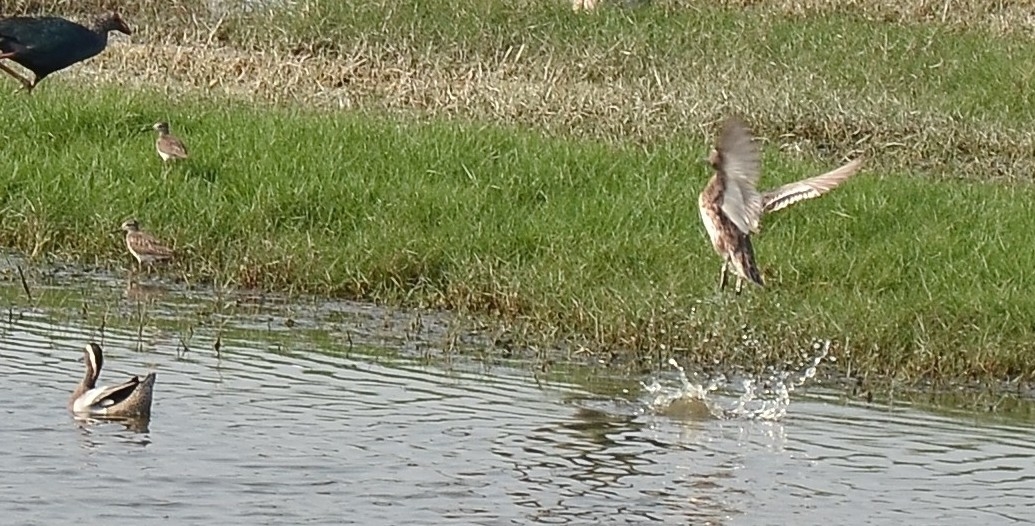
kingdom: Animalia
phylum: Chordata
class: Aves
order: Pelecaniformes
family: Ardeidae
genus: Ardeola
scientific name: Ardeola grayii
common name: Indian pond heron
